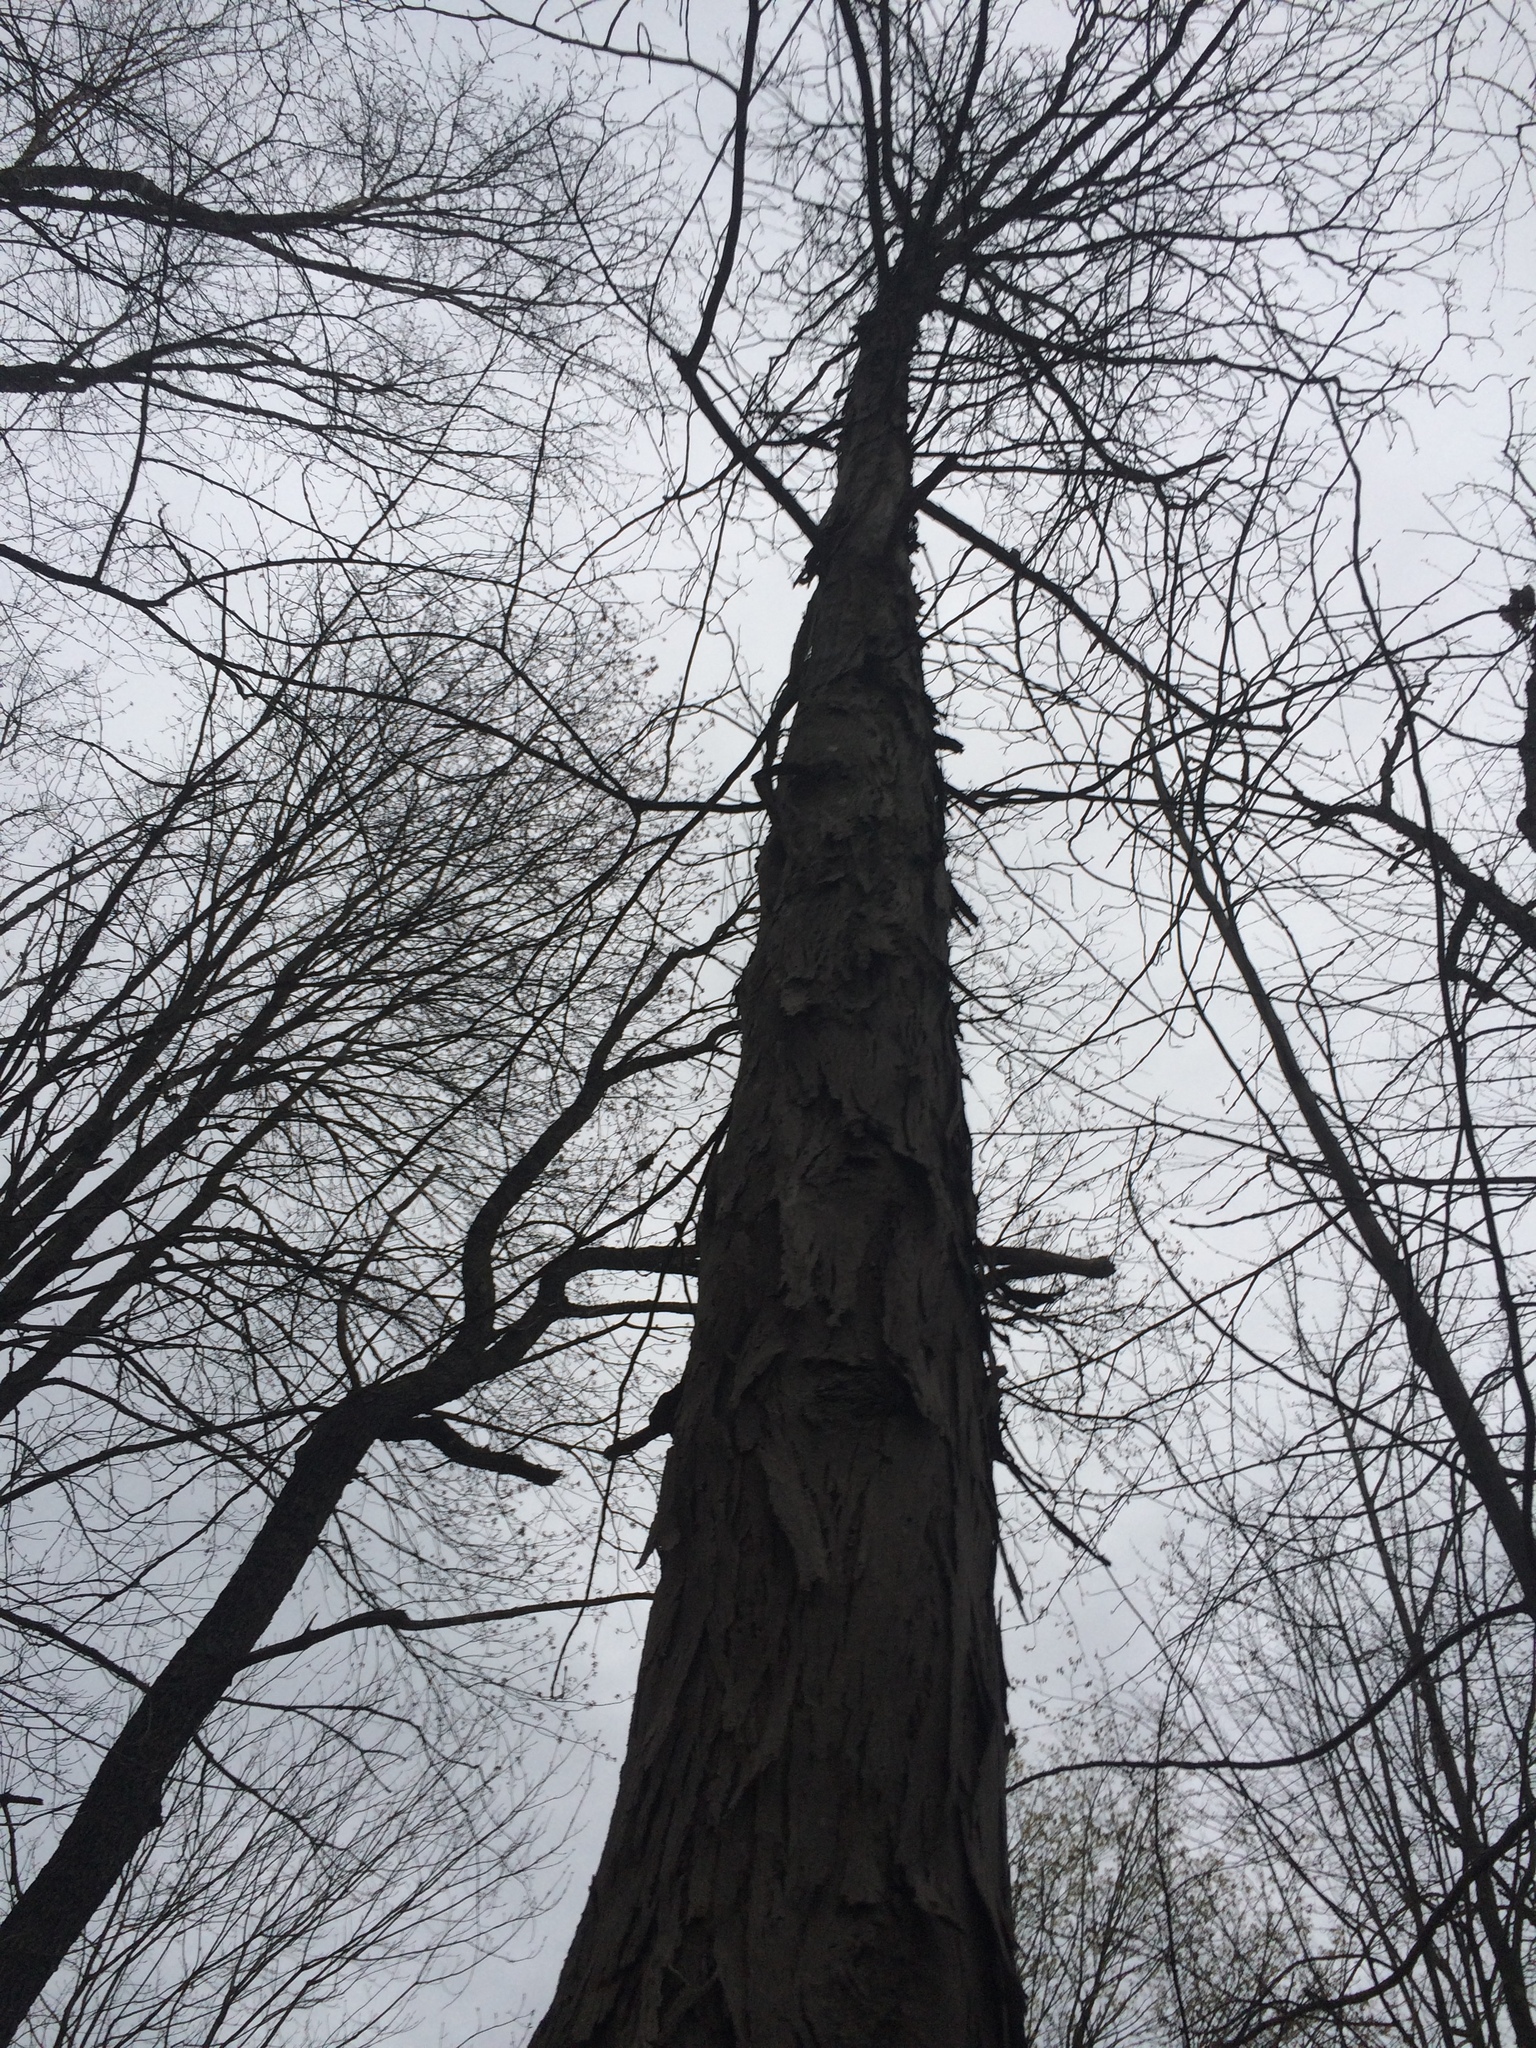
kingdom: Plantae
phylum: Tracheophyta
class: Magnoliopsida
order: Fagales
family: Juglandaceae
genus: Carya
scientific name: Carya ovata
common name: Shagbark hickory
